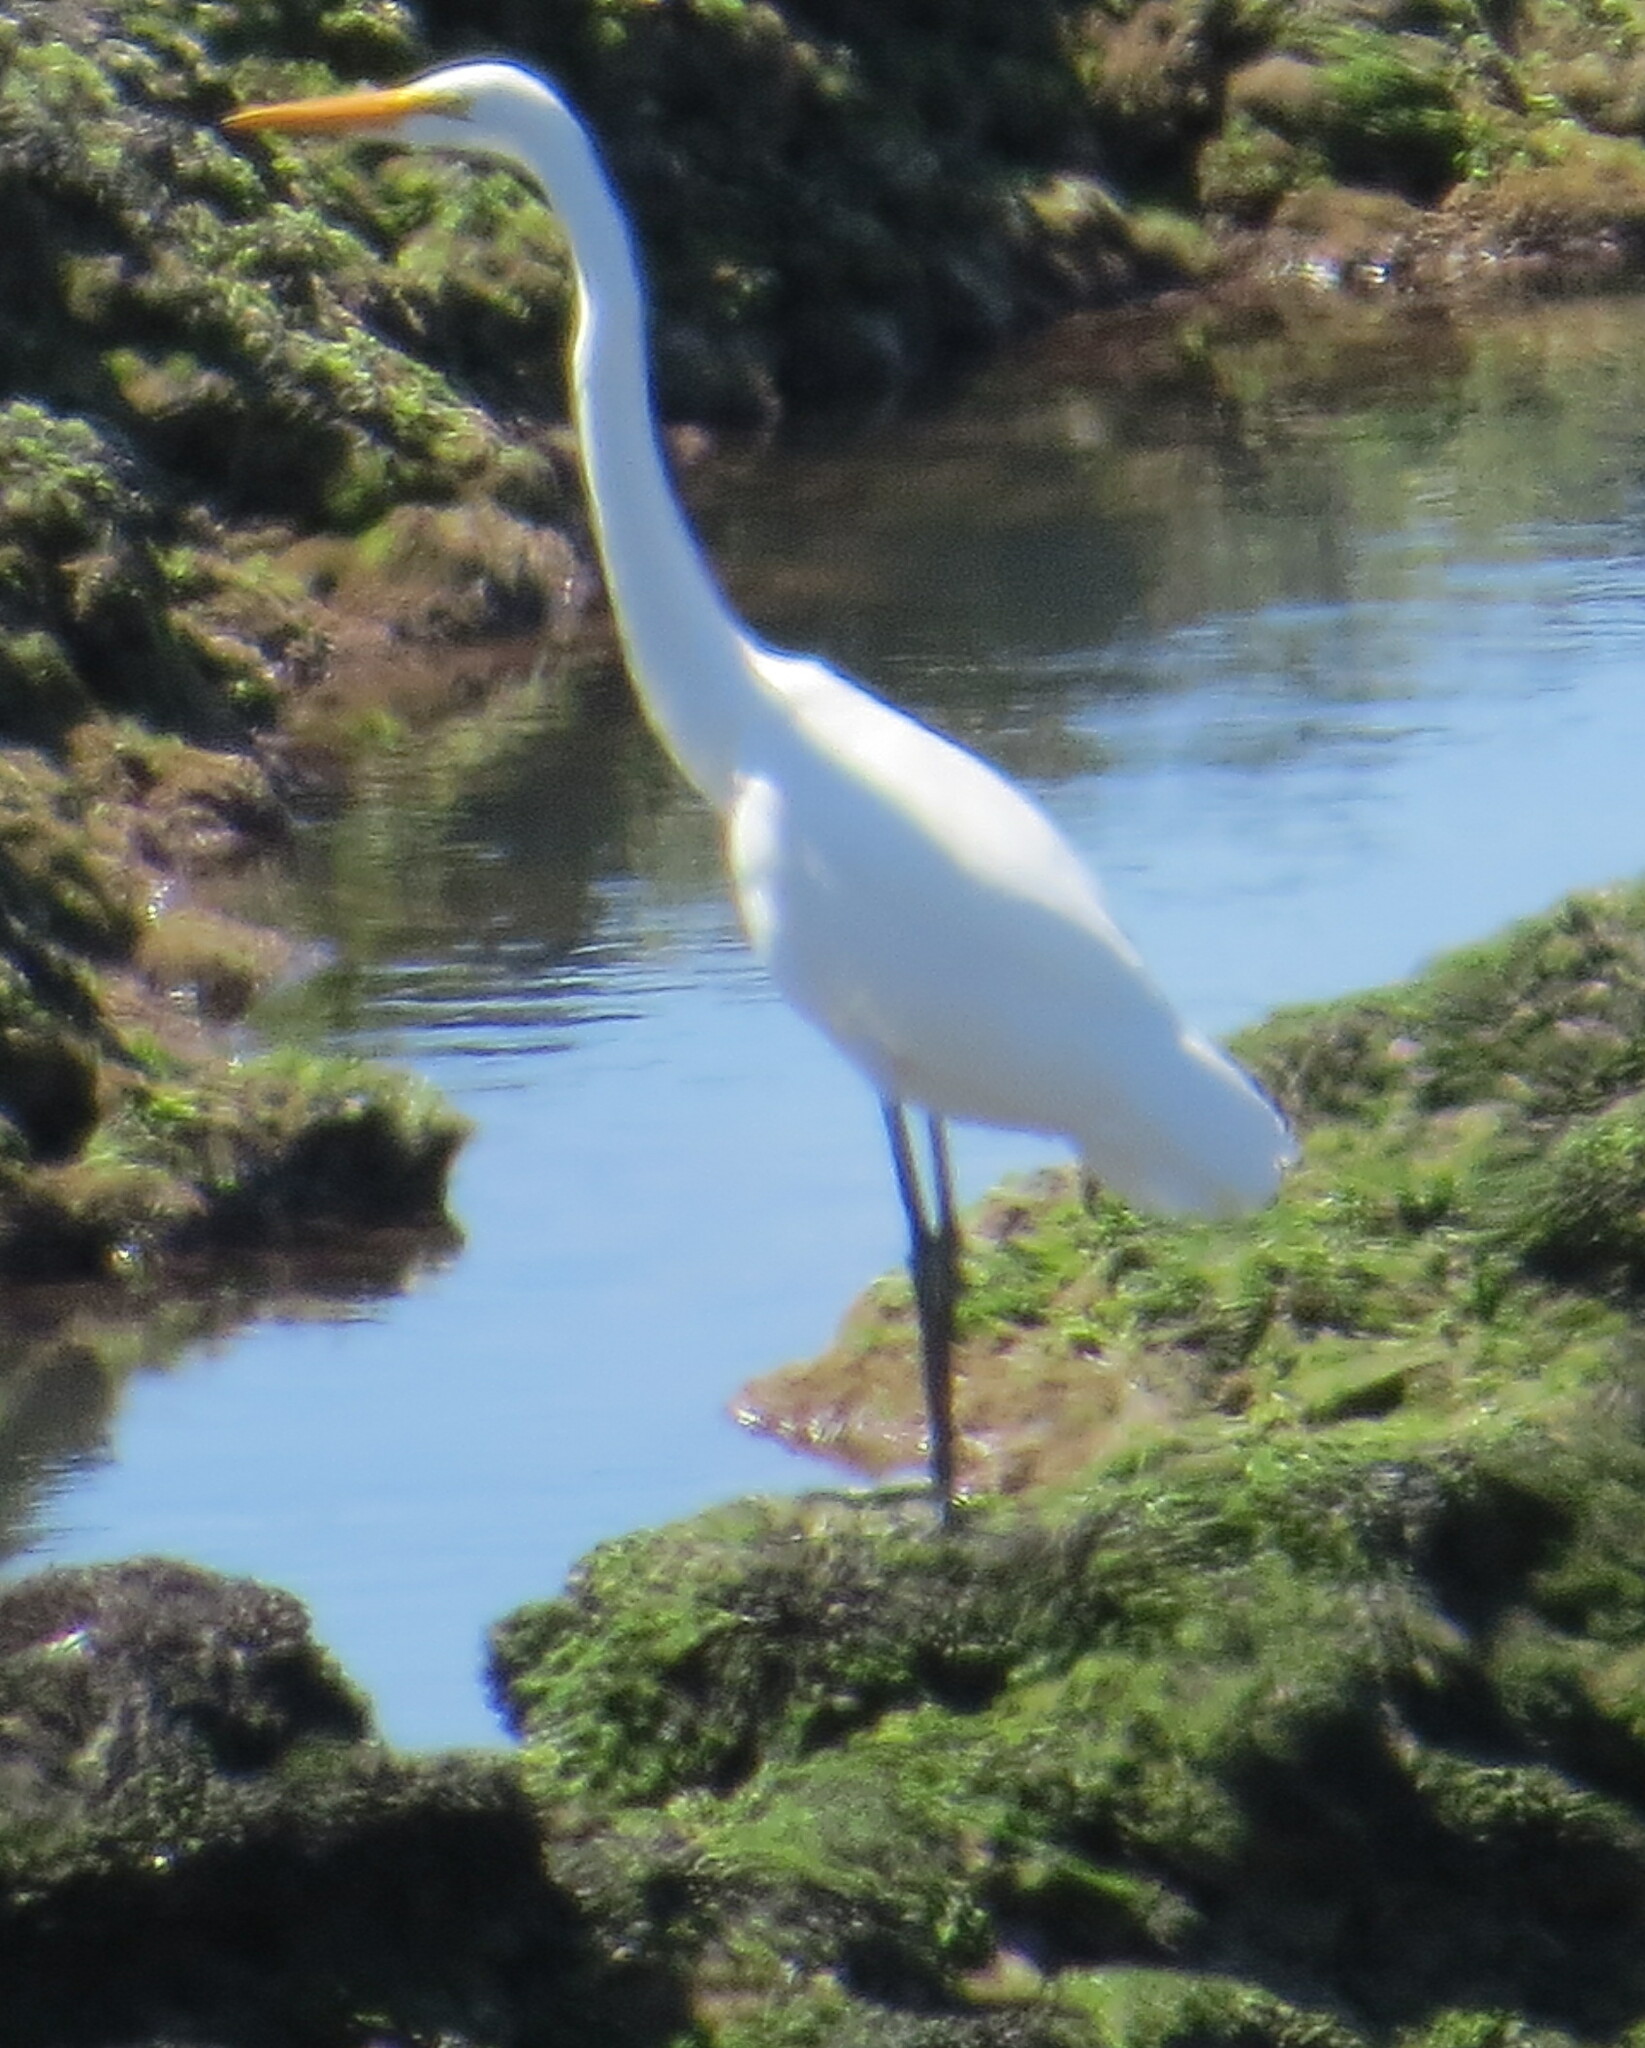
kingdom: Animalia
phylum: Chordata
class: Aves
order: Pelecaniformes
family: Ardeidae
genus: Ardea
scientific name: Ardea alba
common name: Great egret
